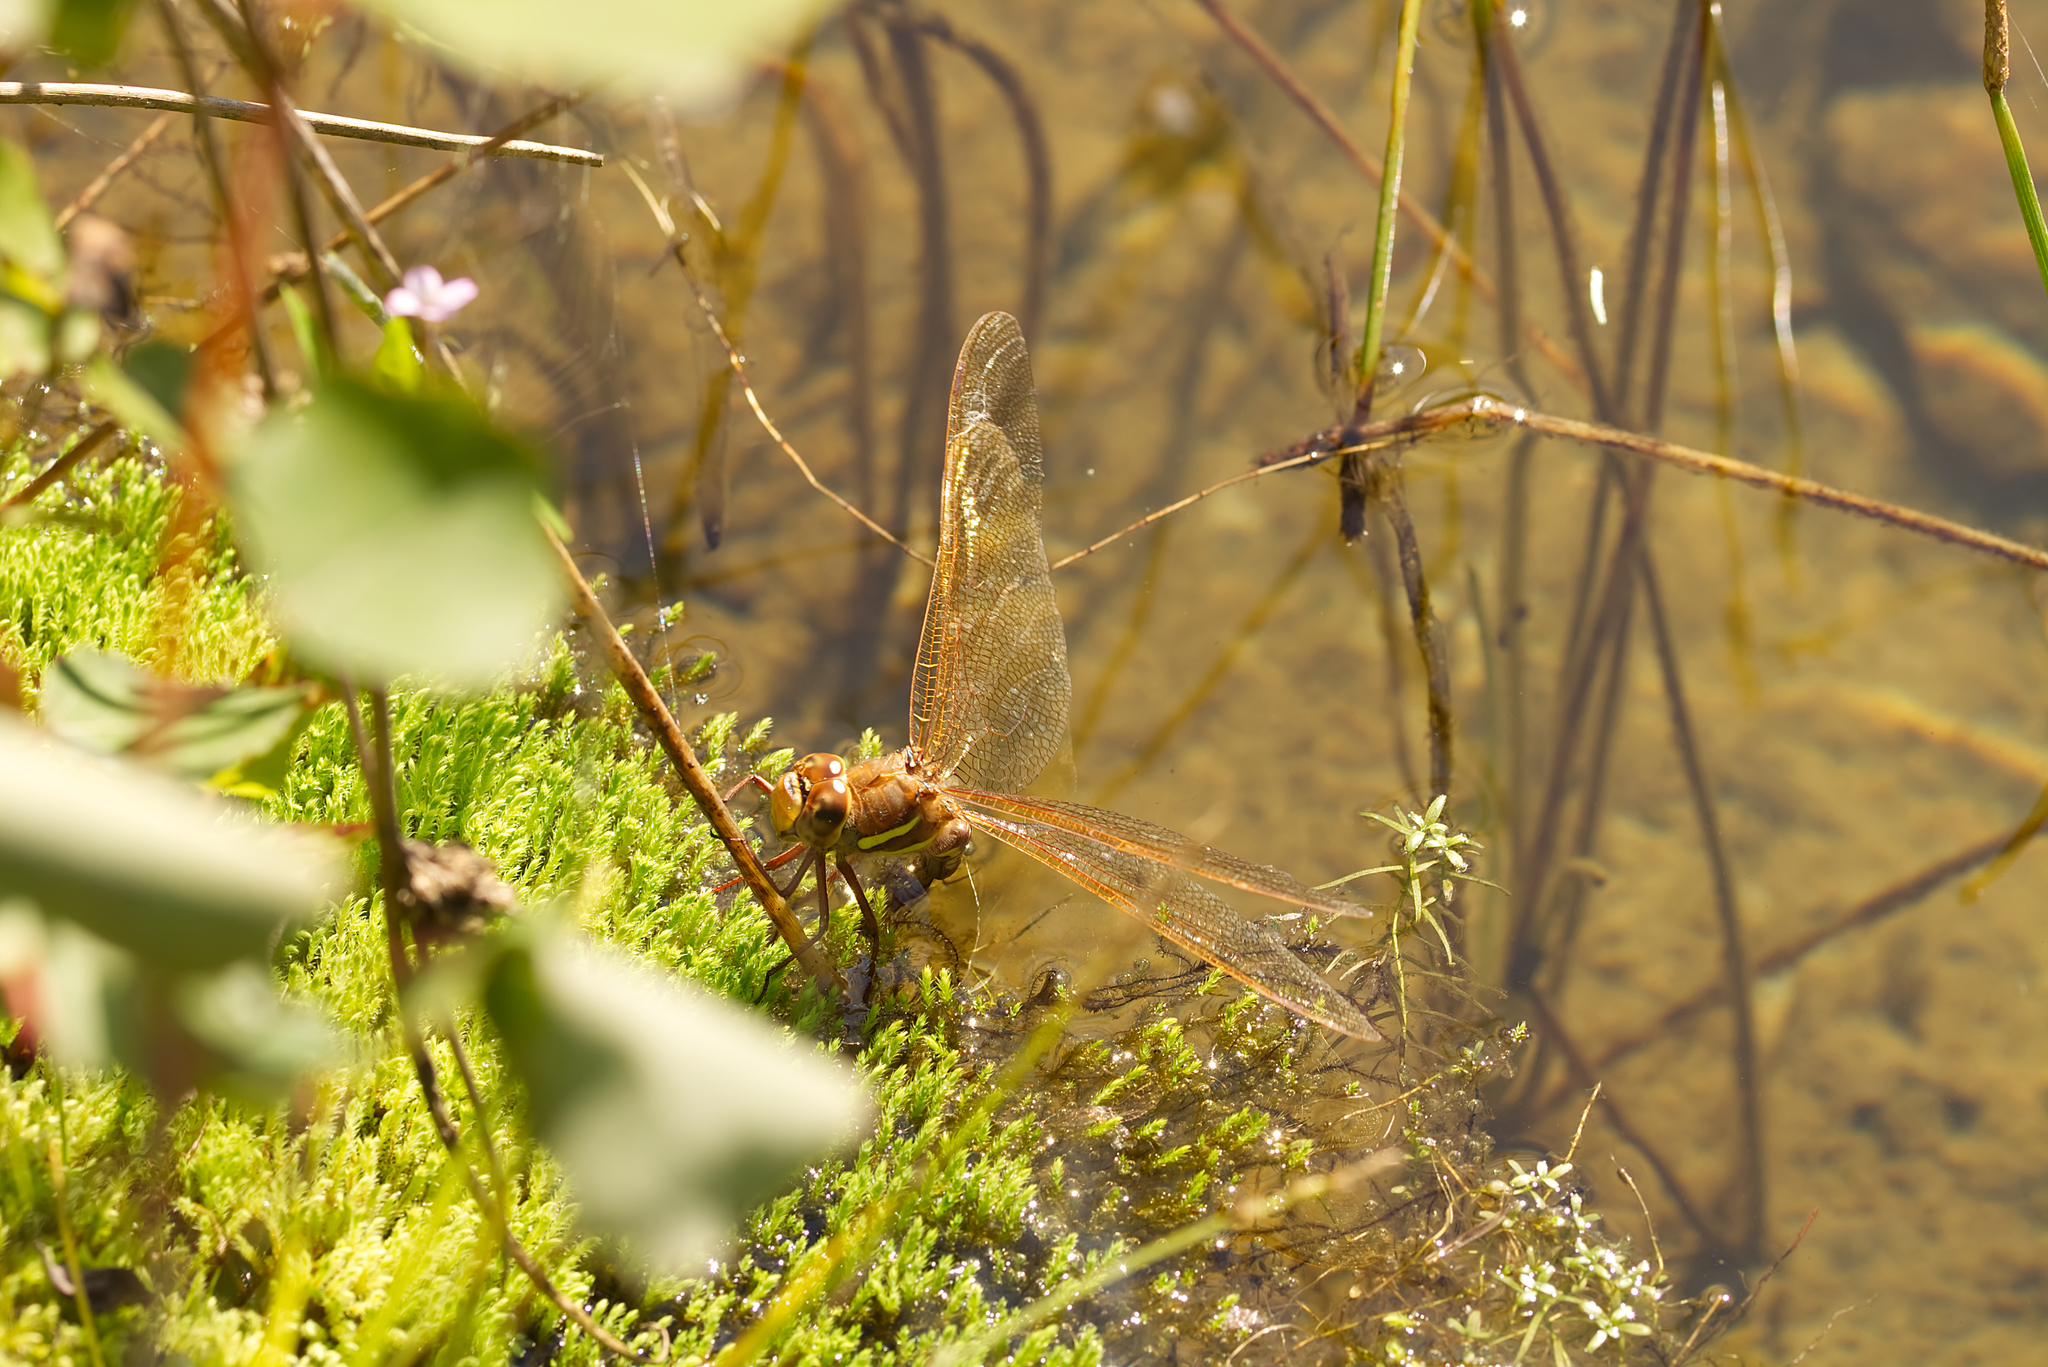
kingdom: Animalia
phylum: Arthropoda
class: Insecta
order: Odonata
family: Aeshnidae
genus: Aeshna
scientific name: Aeshna grandis
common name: Brown hawker
